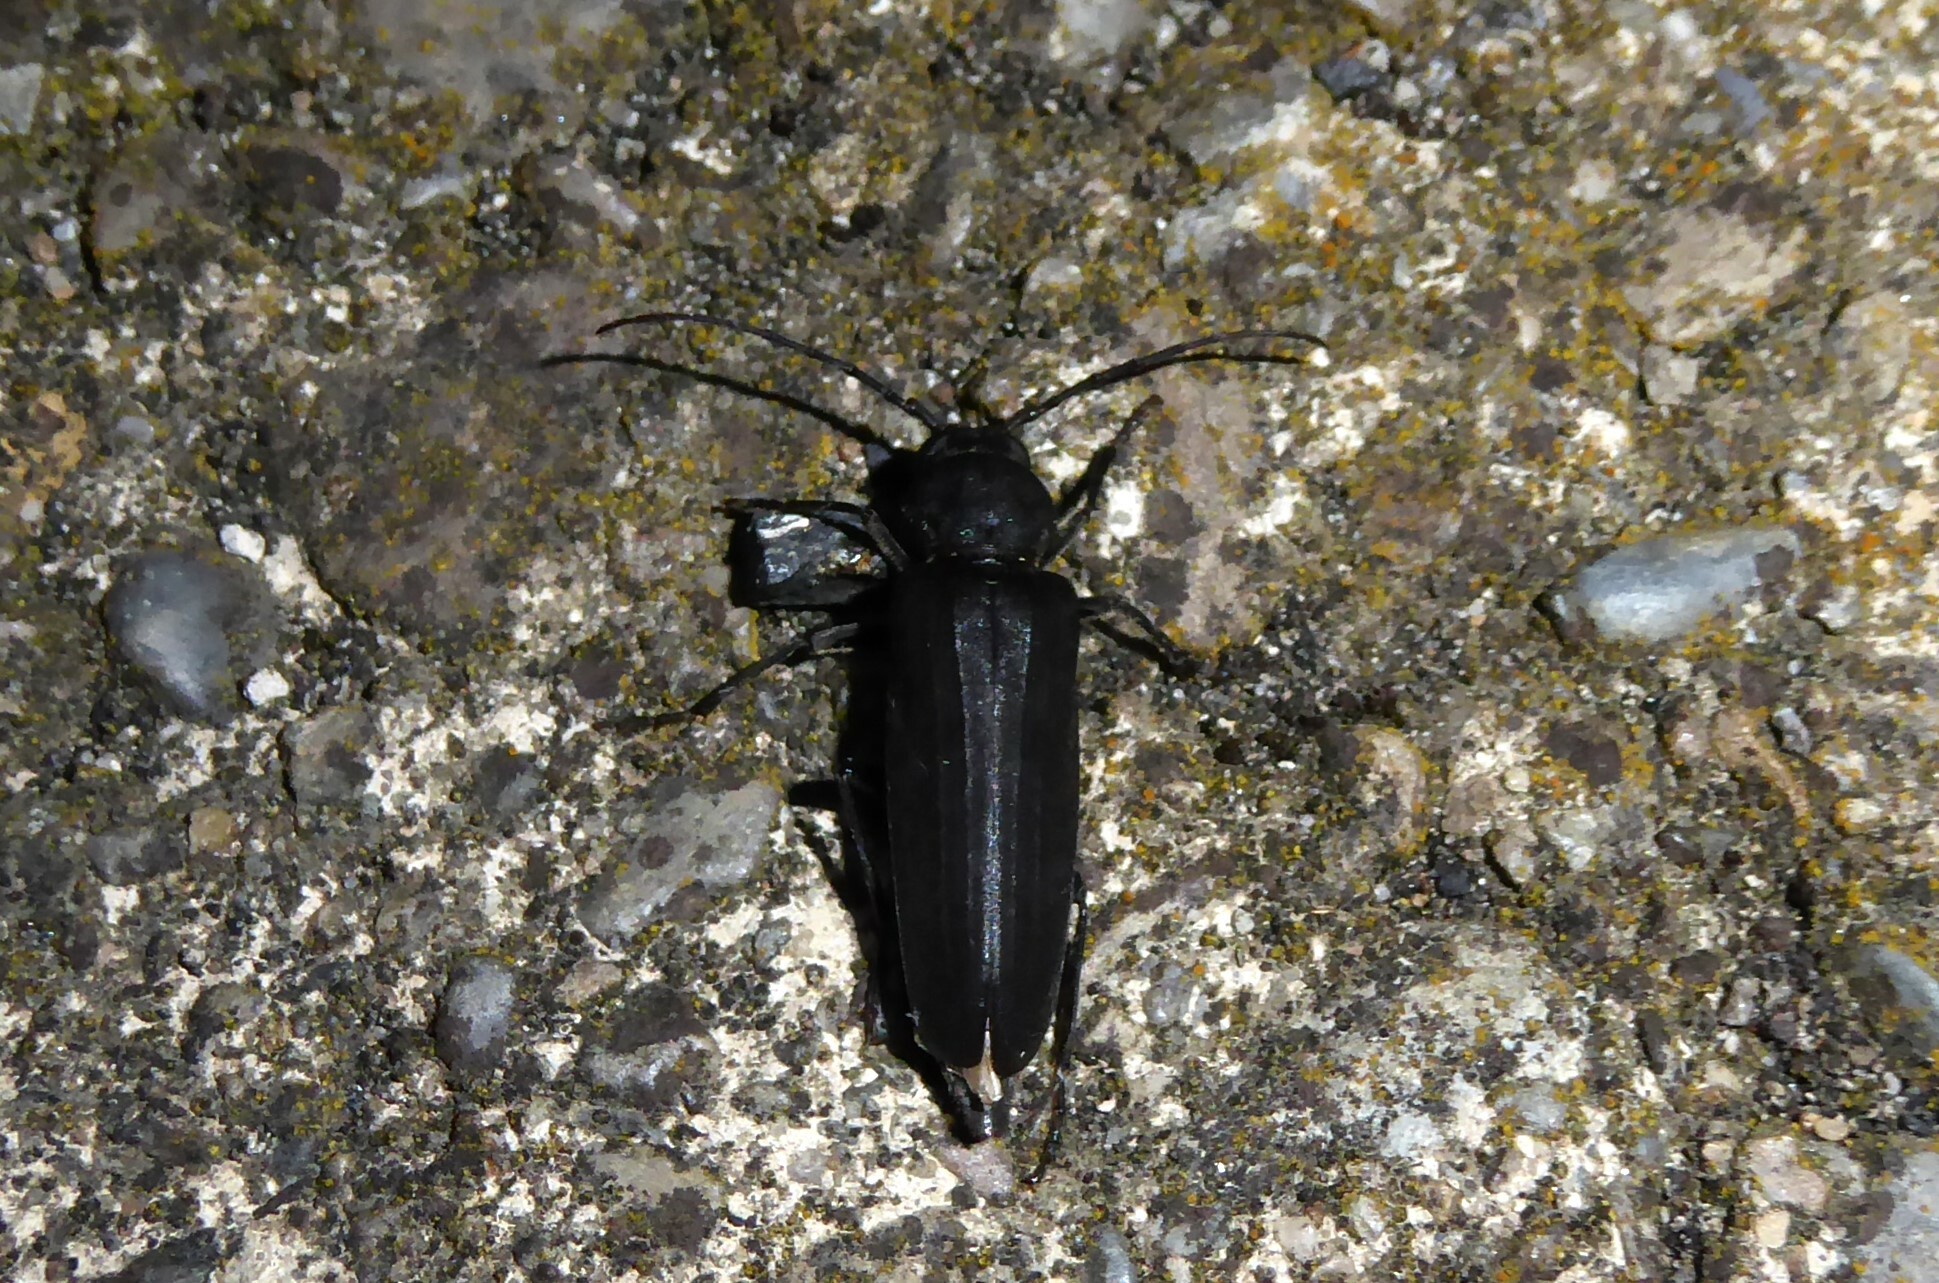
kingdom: Animalia
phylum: Arthropoda
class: Insecta
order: Coleoptera
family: Cerambycidae
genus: Arhopalus
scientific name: Arhopalus ferus
